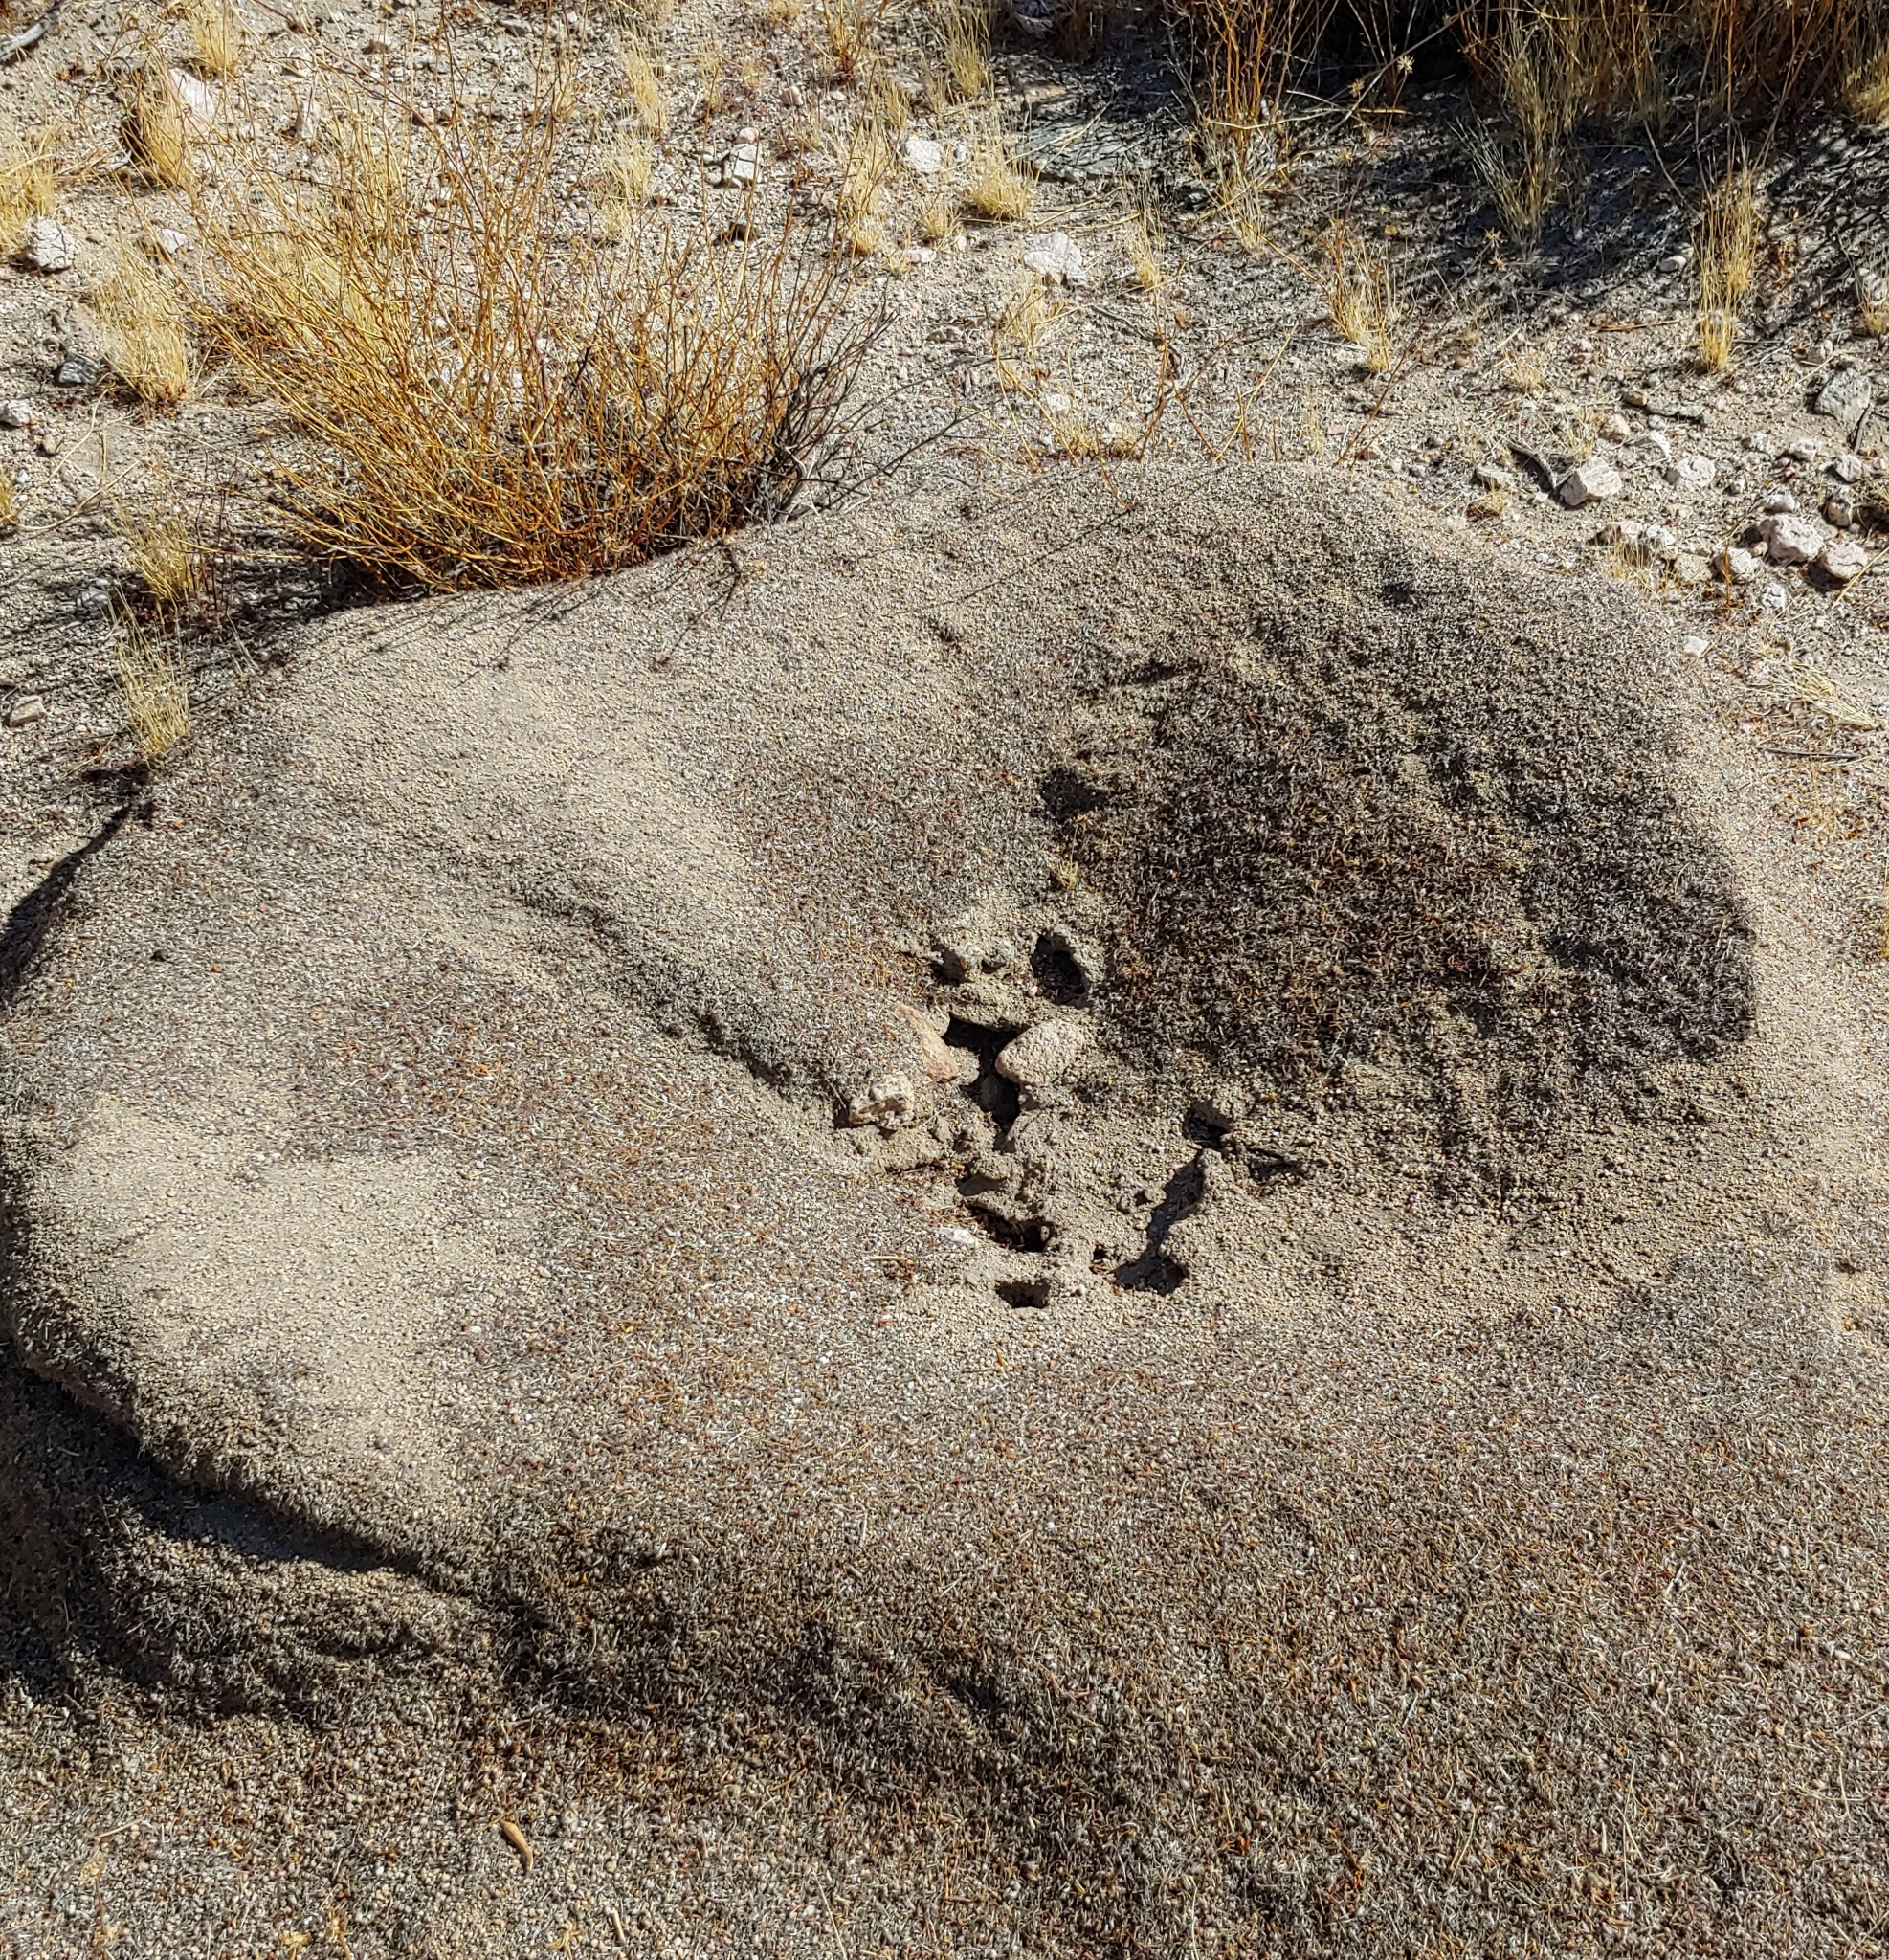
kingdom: Animalia
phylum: Arthropoda
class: Insecta
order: Hymenoptera
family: Formicidae
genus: Messor
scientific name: Messor pergandei
